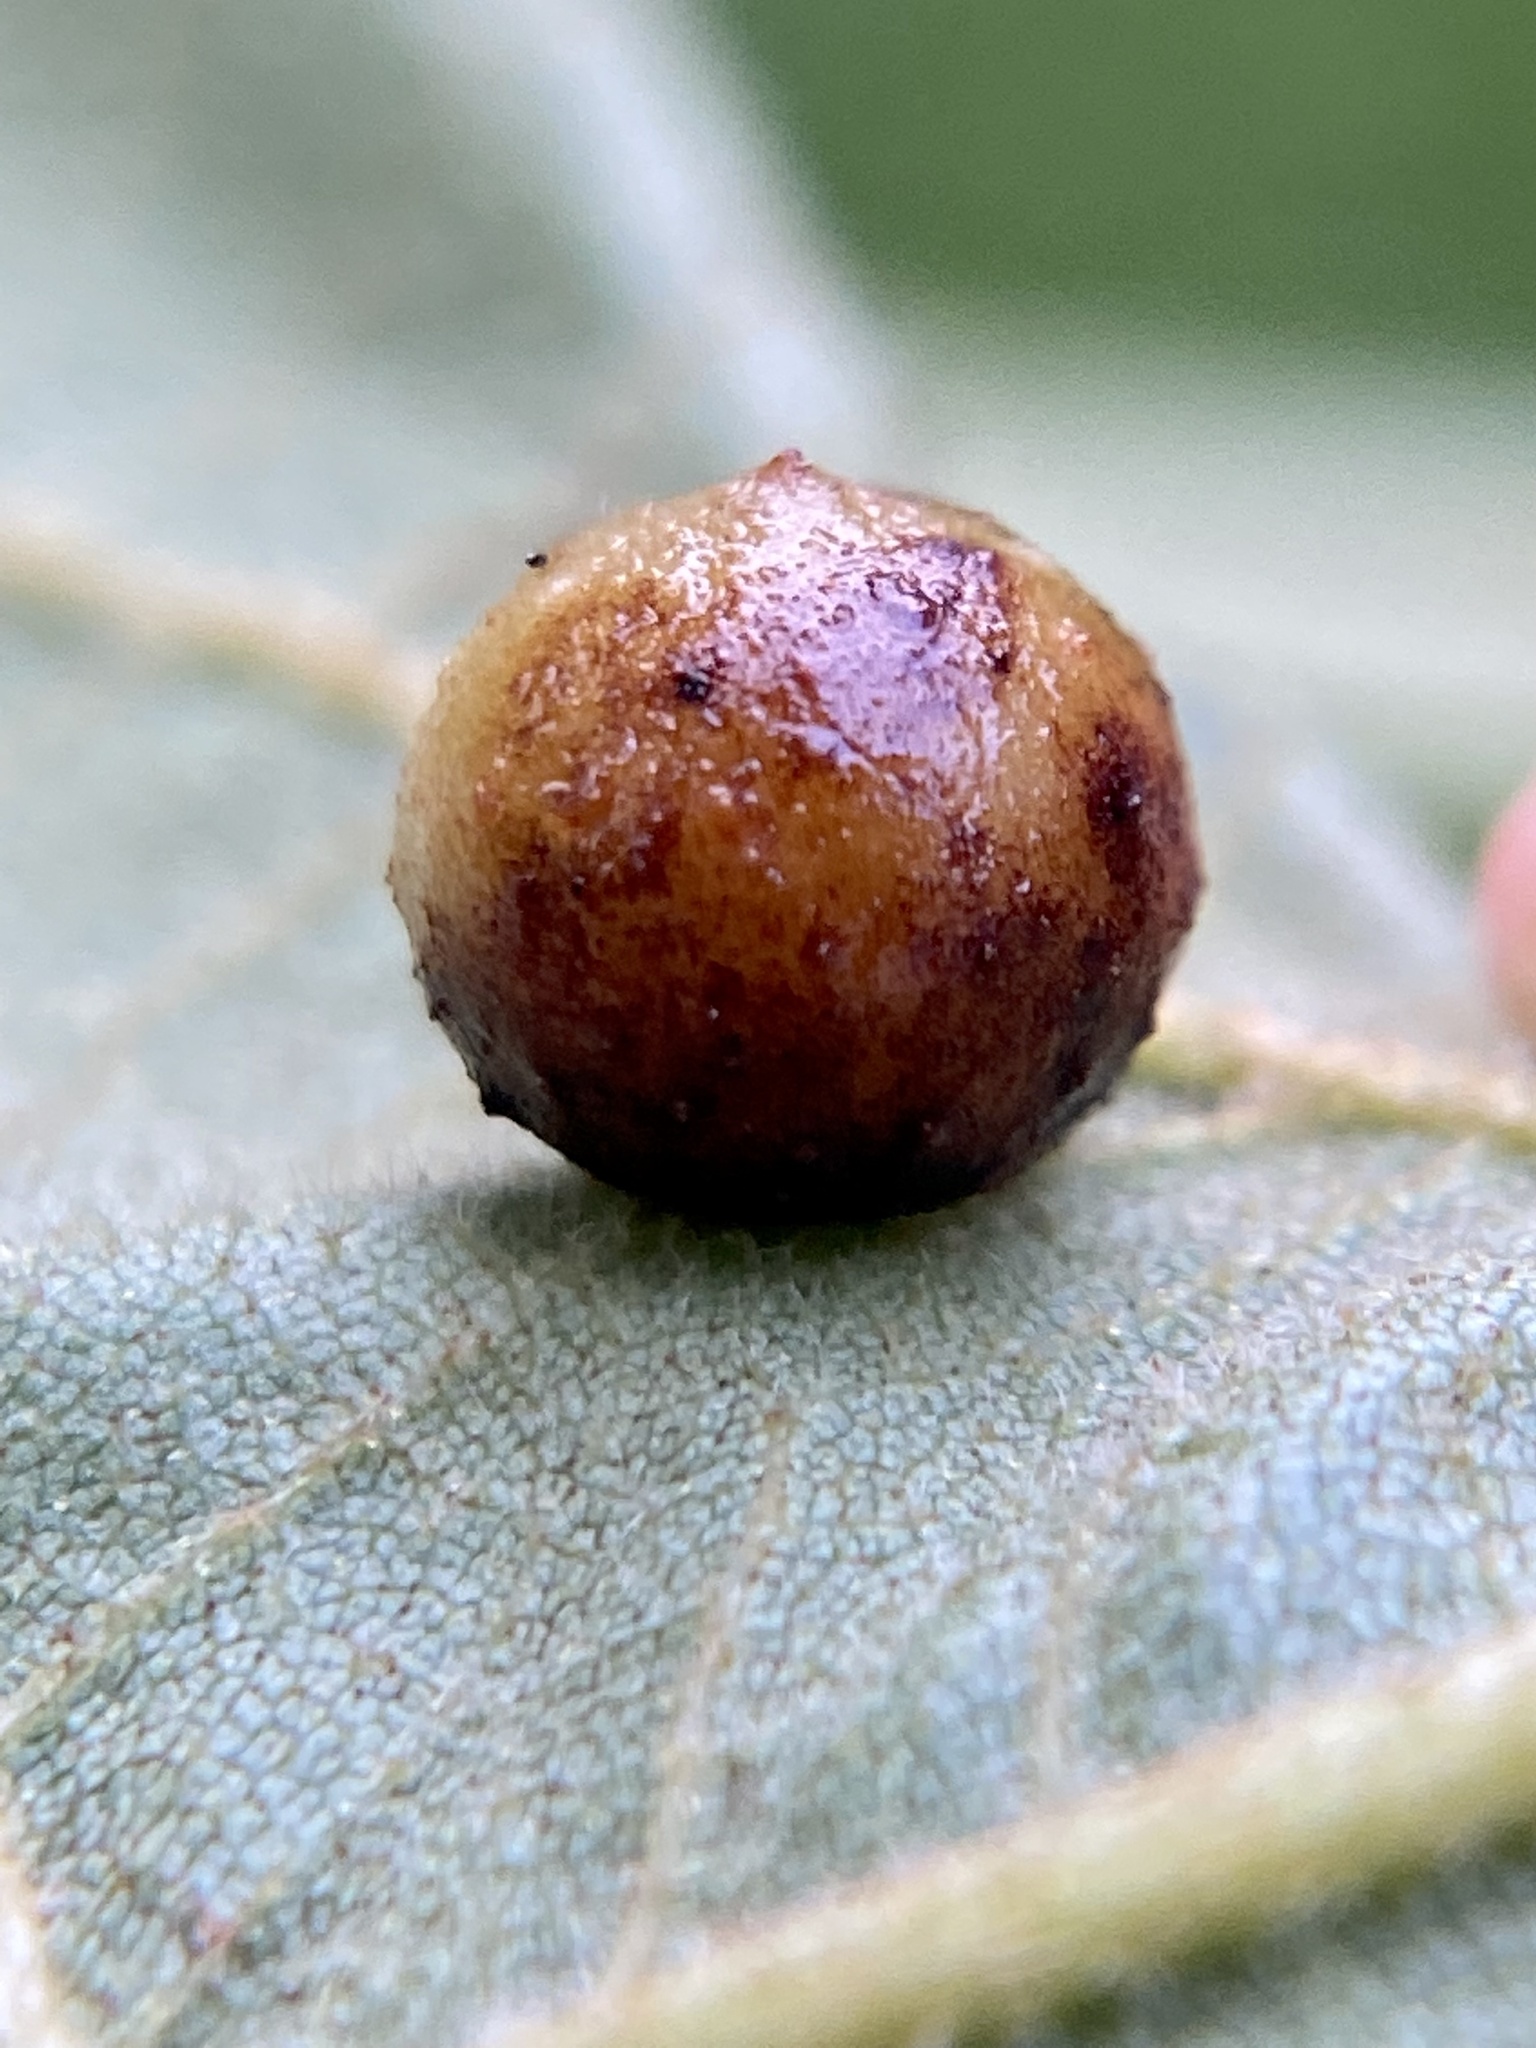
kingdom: Animalia
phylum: Arthropoda
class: Insecta
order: Diptera
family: Cecidomyiidae
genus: Caryomyia
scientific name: Caryomyia tuberculata
